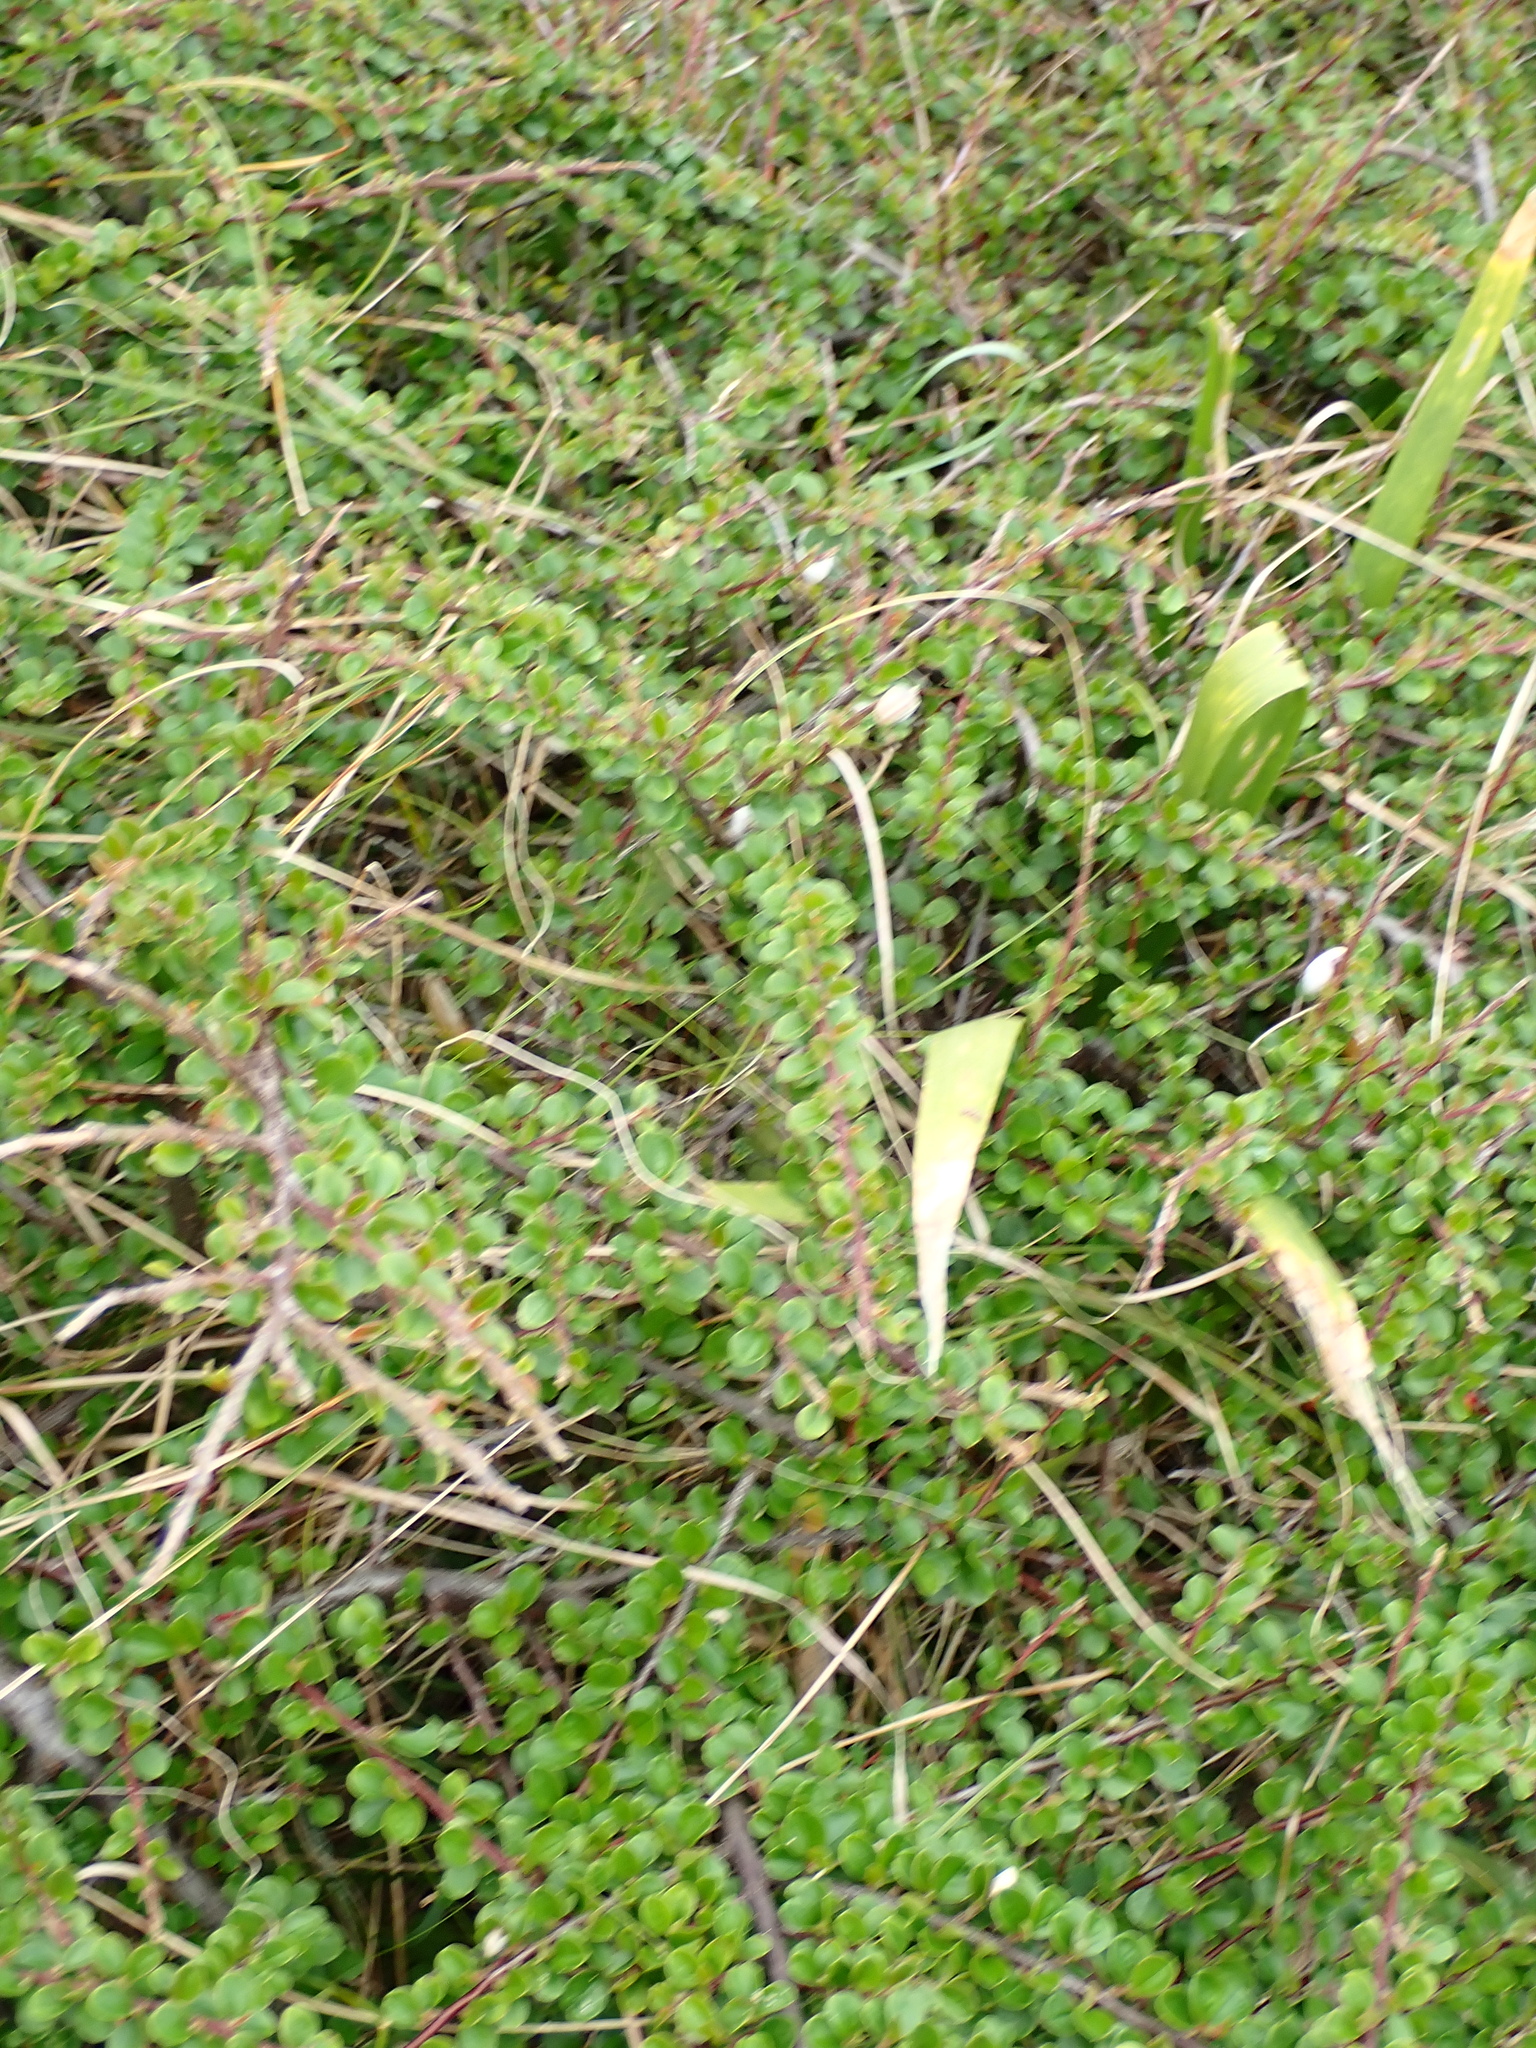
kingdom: Plantae
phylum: Tracheophyta
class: Magnoliopsida
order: Rosales
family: Rosaceae
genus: Cotoneaster
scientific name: Cotoneaster hjelmqvistii
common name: Hjelmqvist's cotoneaster
